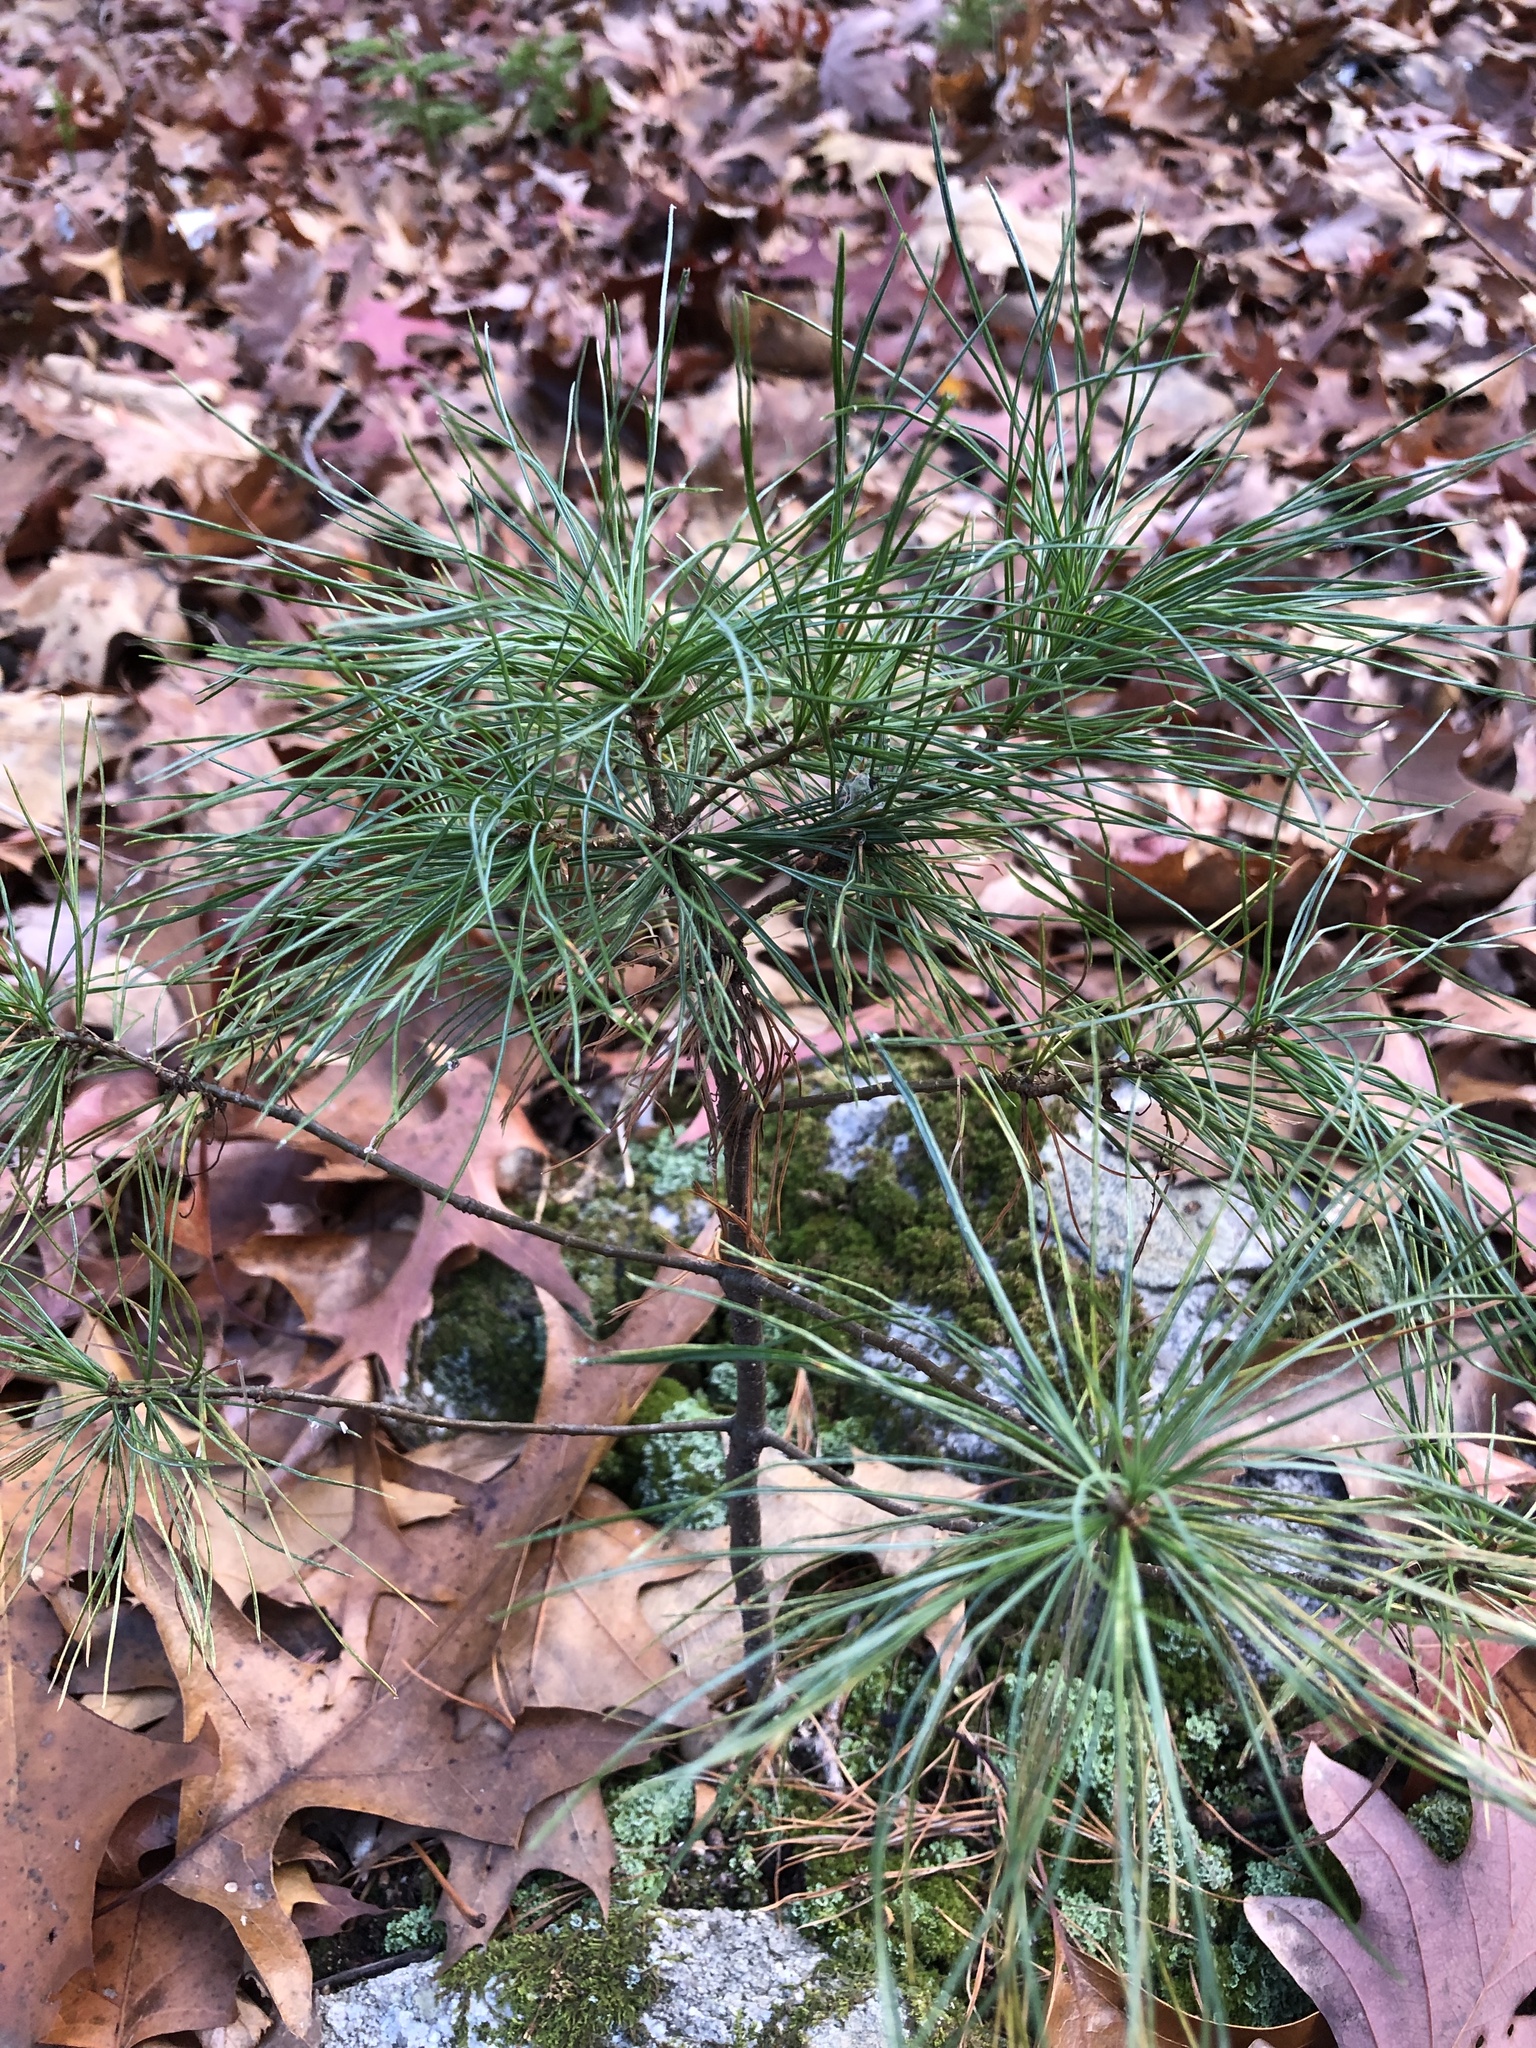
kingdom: Plantae
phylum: Tracheophyta
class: Pinopsida
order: Pinales
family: Pinaceae
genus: Pinus
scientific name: Pinus strobus
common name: Weymouth pine
